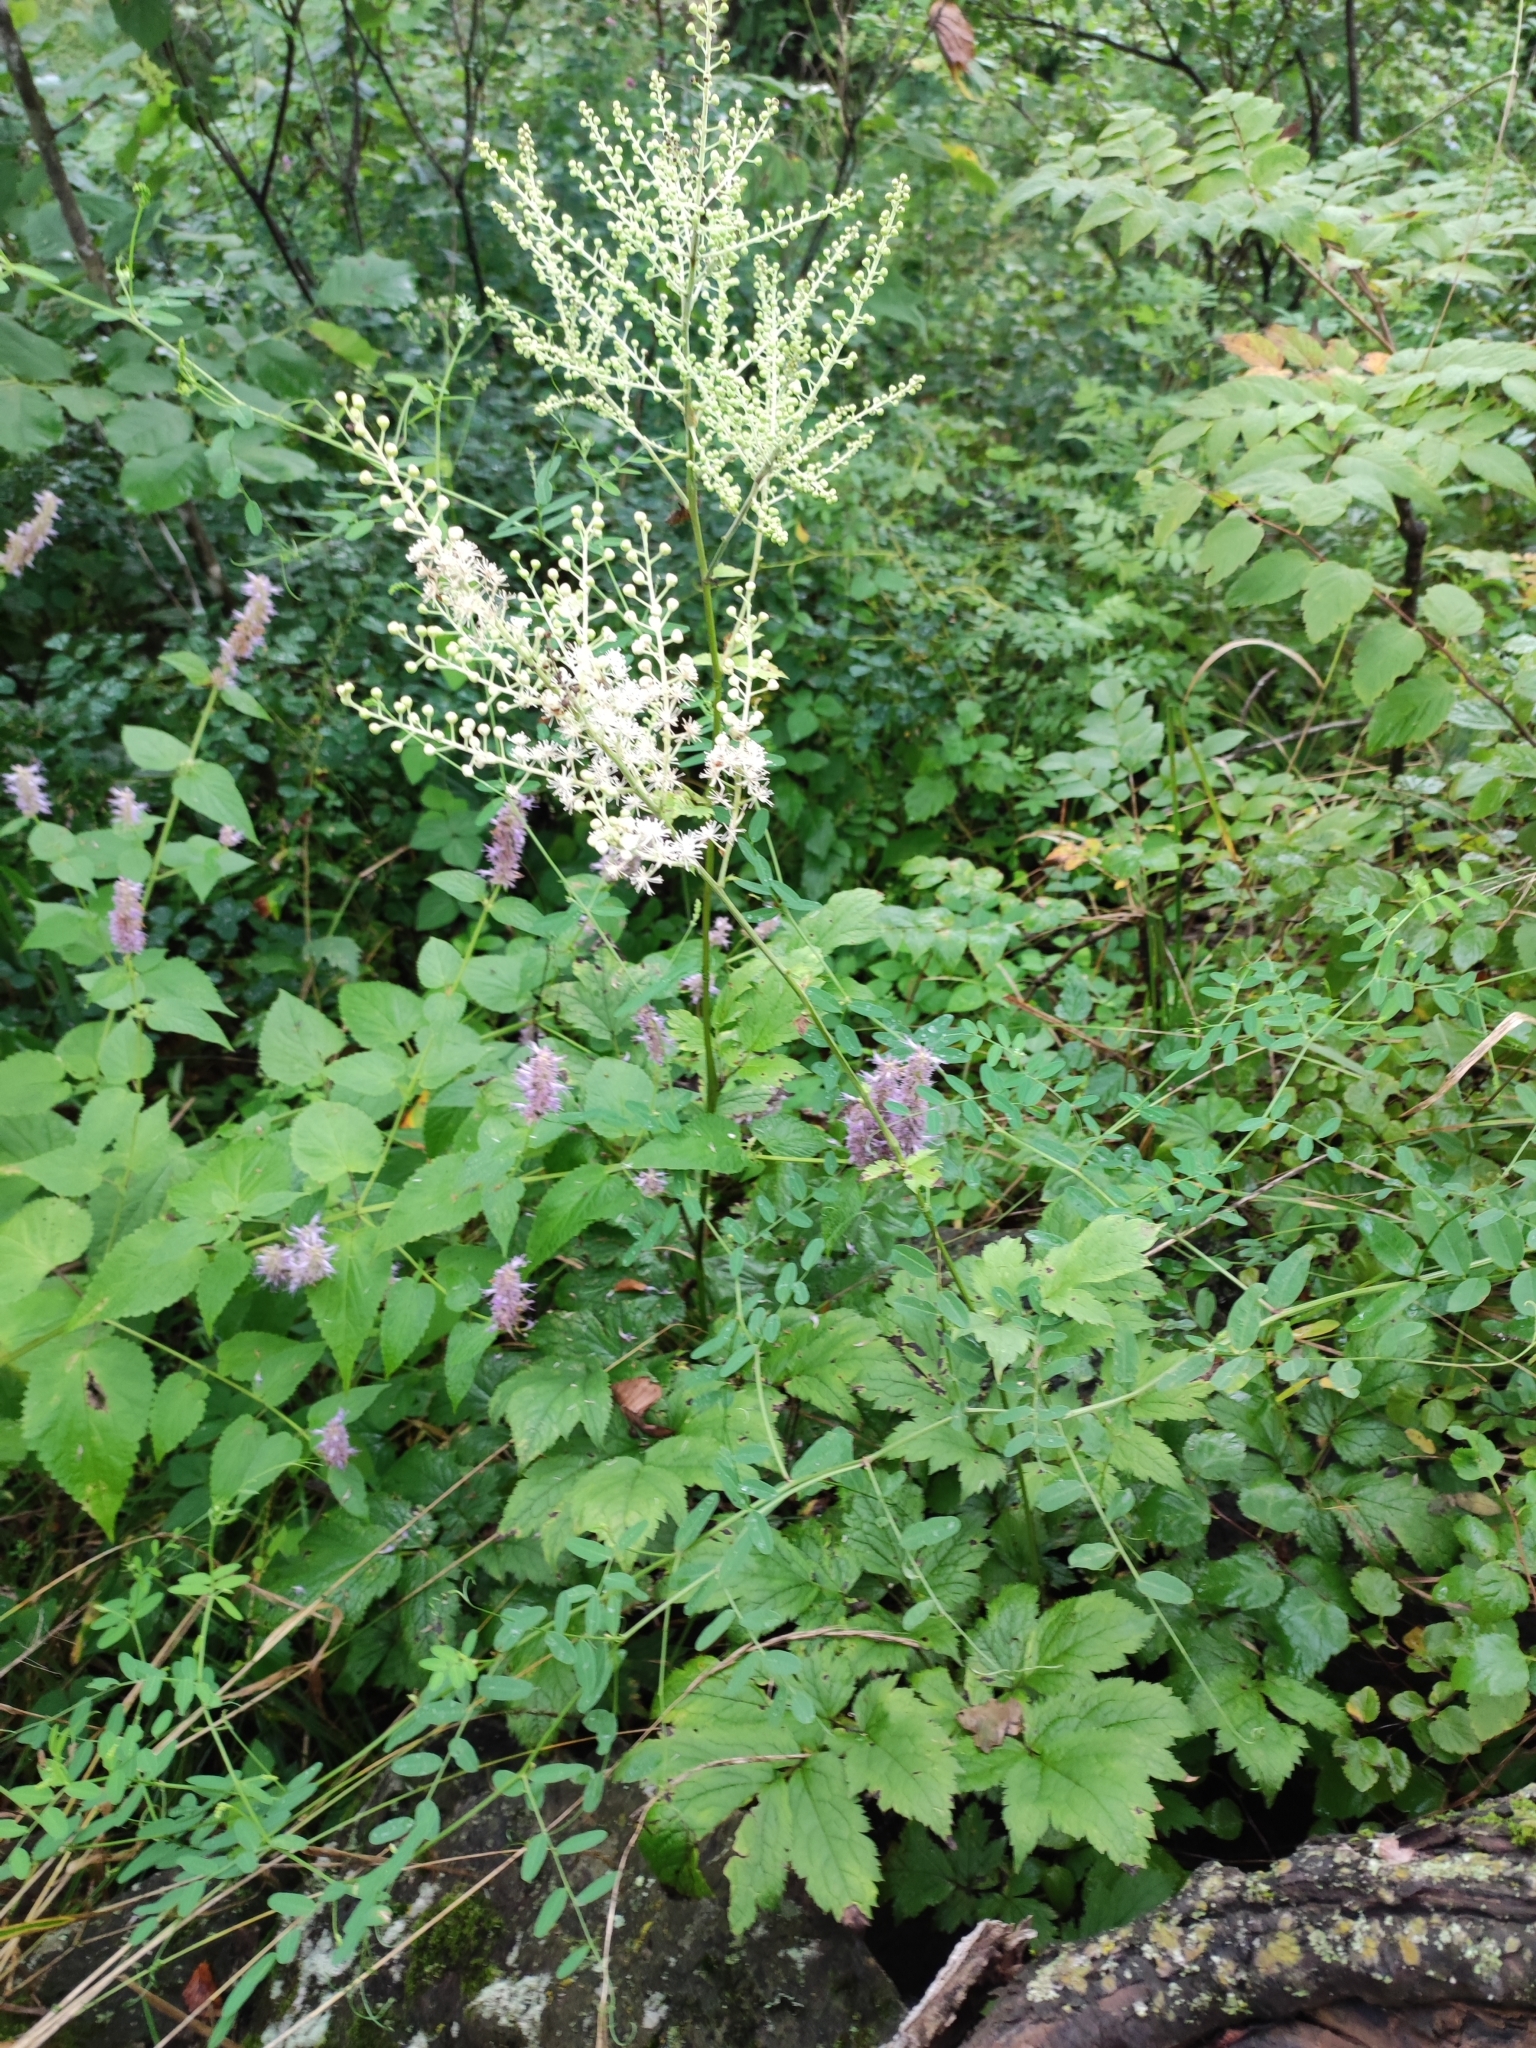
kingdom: Plantae
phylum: Tracheophyta
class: Magnoliopsida
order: Ranunculales
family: Ranunculaceae
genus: Actaea
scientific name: Actaea dahurica
